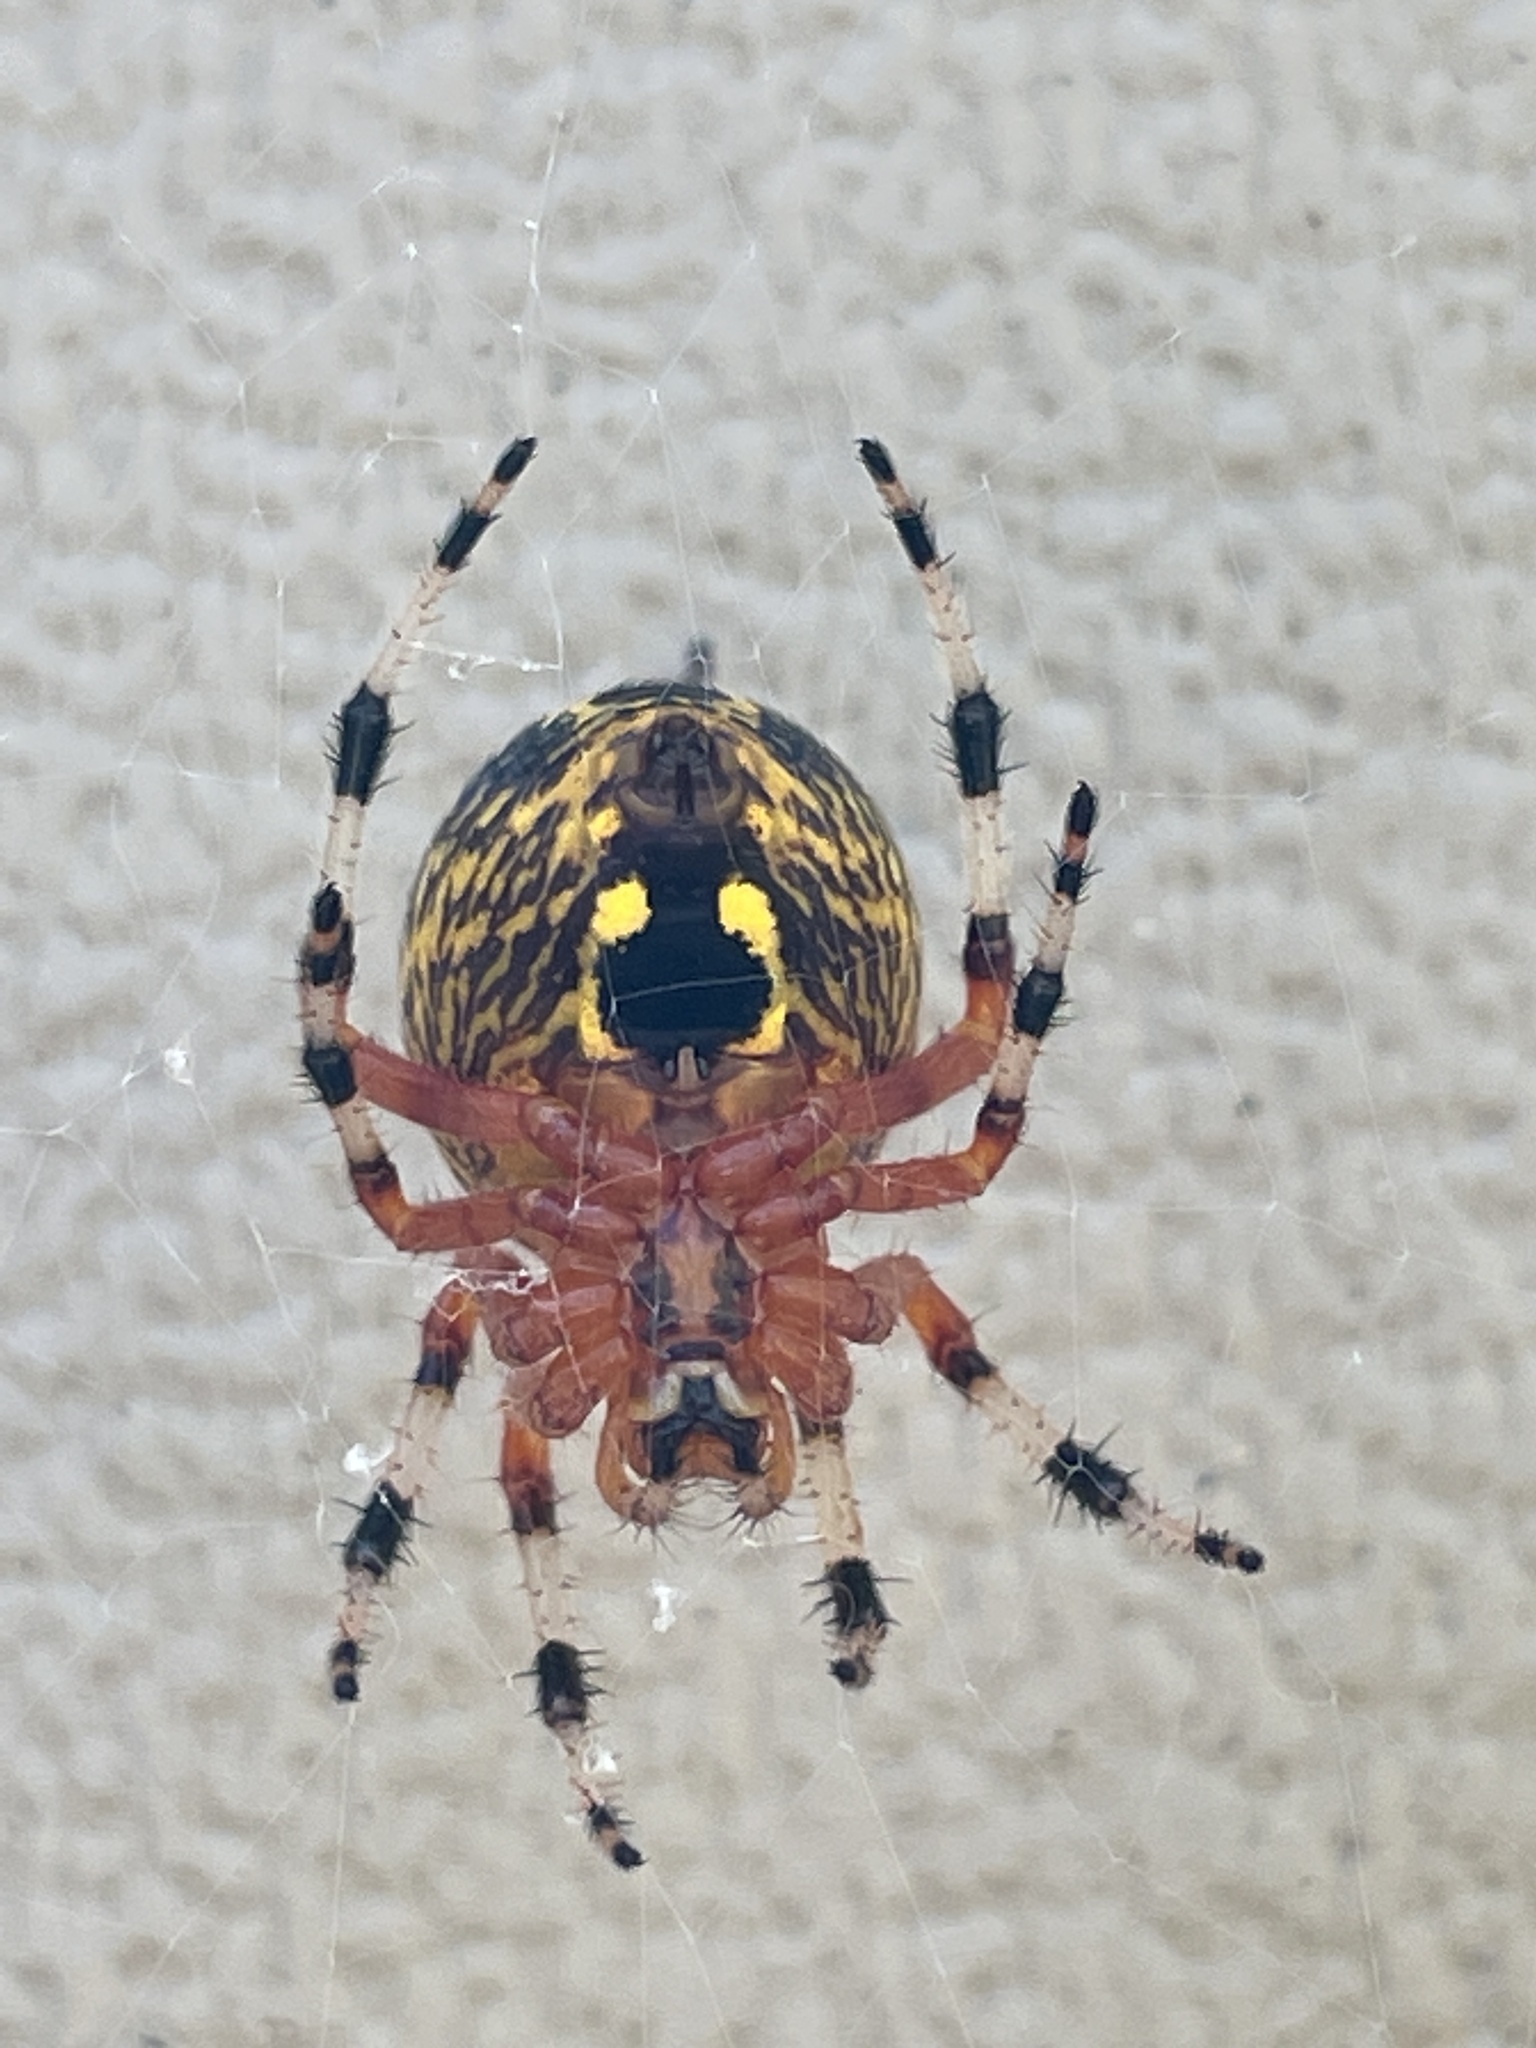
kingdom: Animalia
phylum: Arthropoda
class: Arachnida
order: Araneae
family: Araneidae
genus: Araneus
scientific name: Araneus marmoreus
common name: Marbled orbweaver
